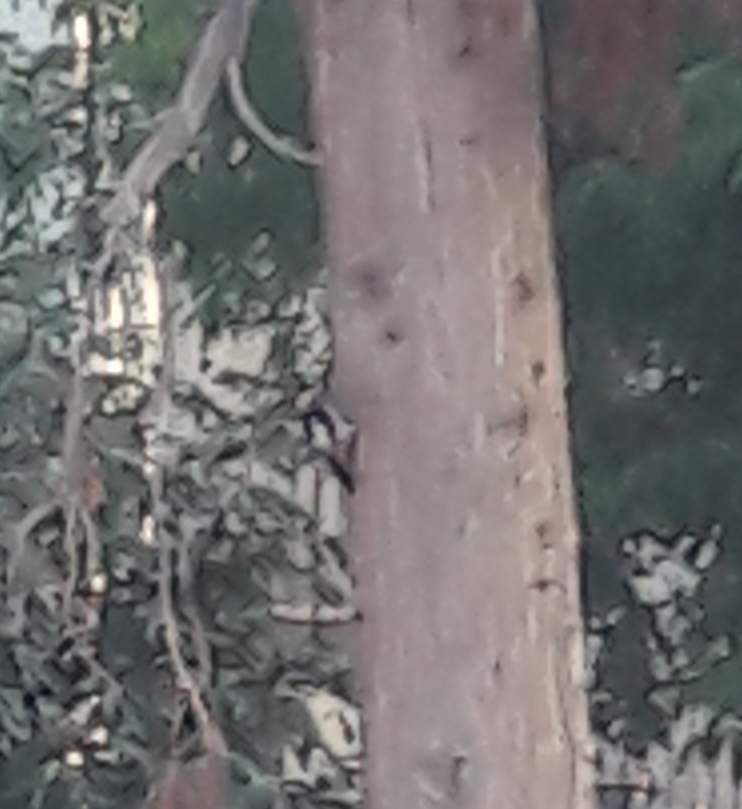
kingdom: Animalia
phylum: Chordata
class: Aves
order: Piciformes
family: Picidae
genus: Dendrocopos
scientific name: Dendrocopos syriacus
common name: Syrian woodpecker
